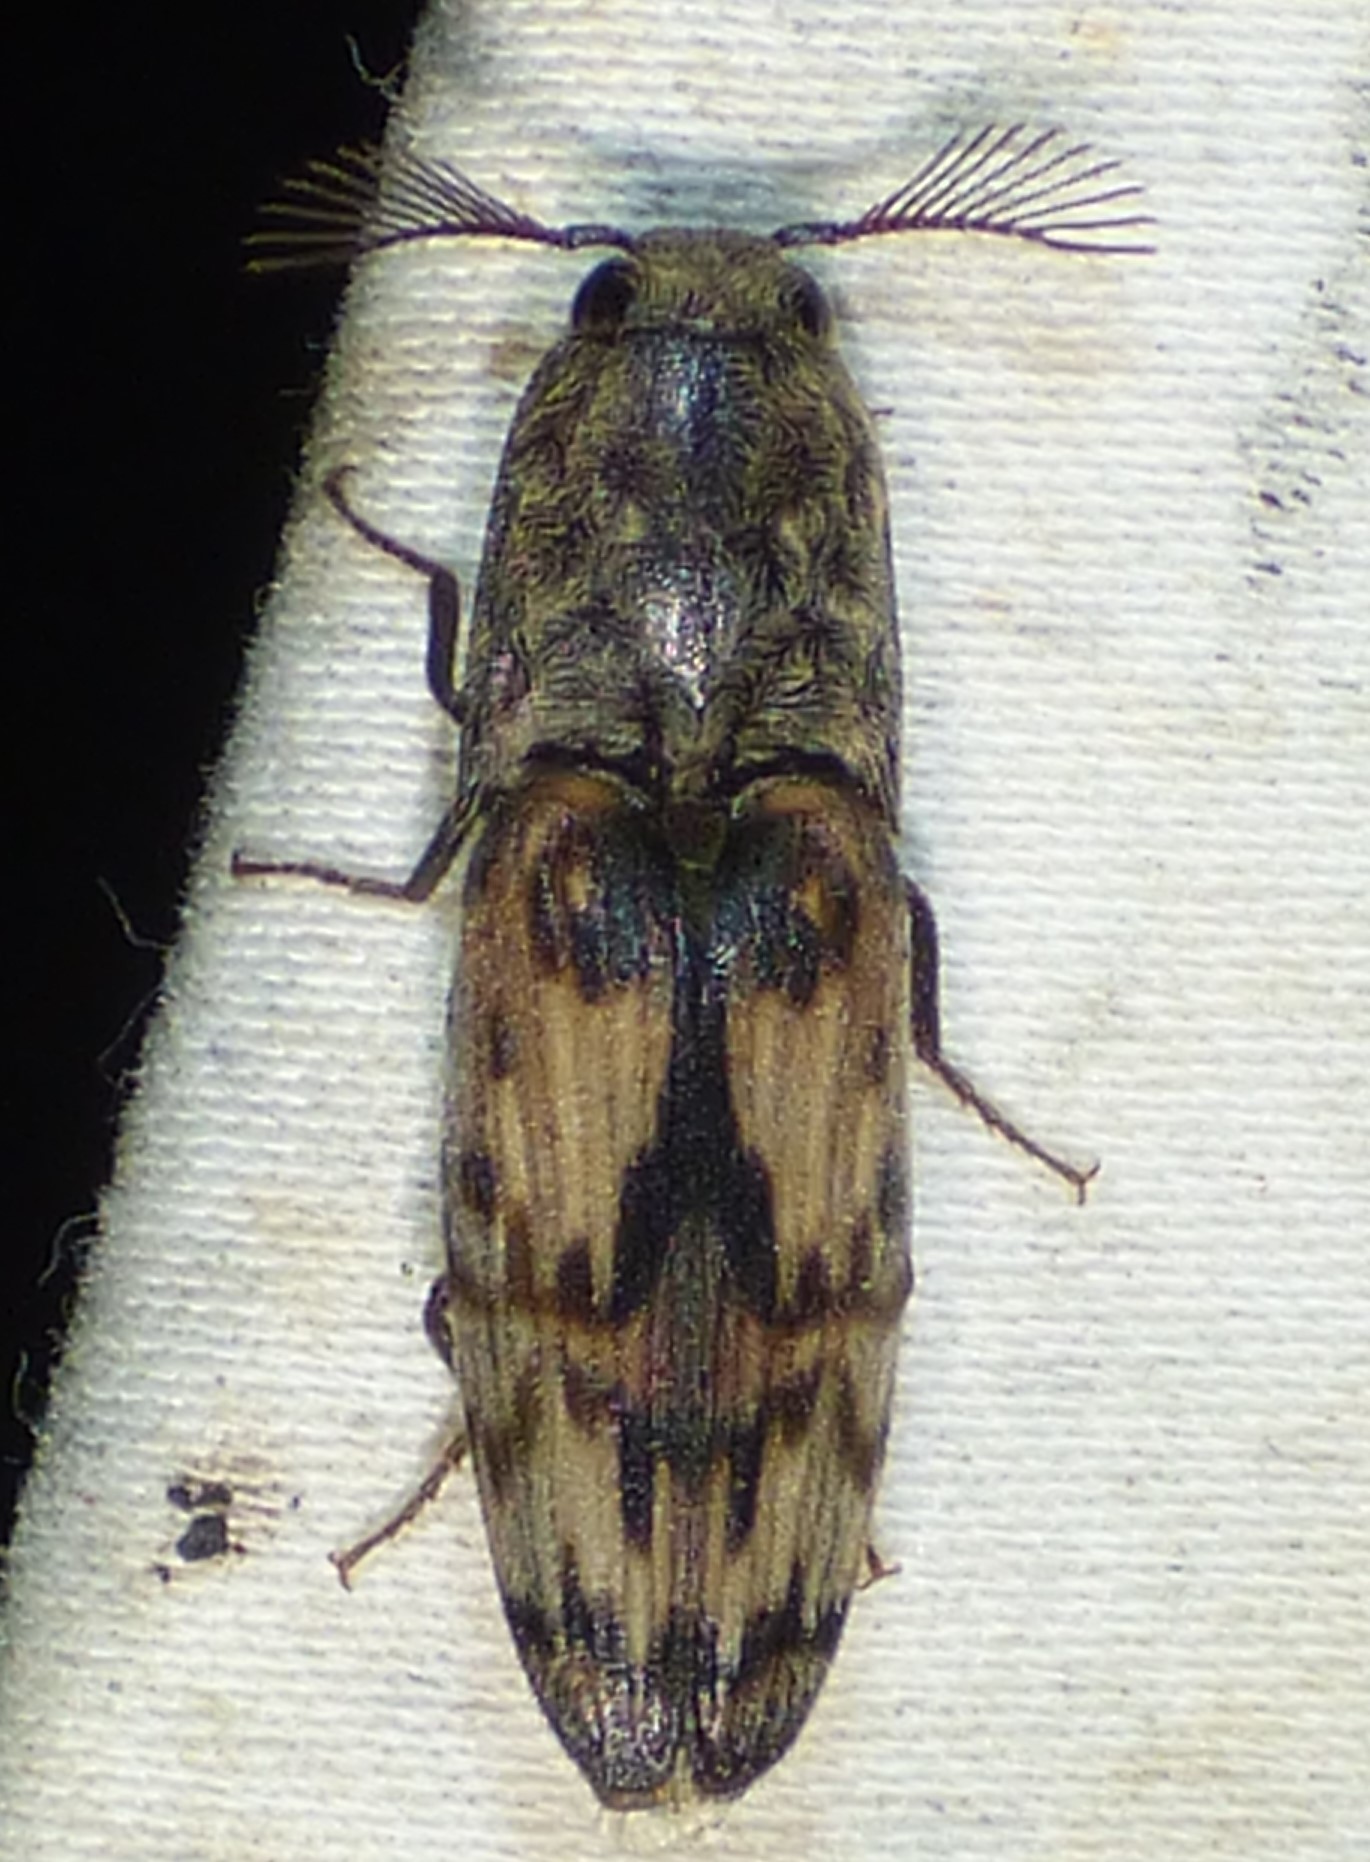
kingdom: Animalia
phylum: Arthropoda
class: Insecta
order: Coleoptera
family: Elateridae
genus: Pherhimius
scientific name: Pherhimius fascicularis
